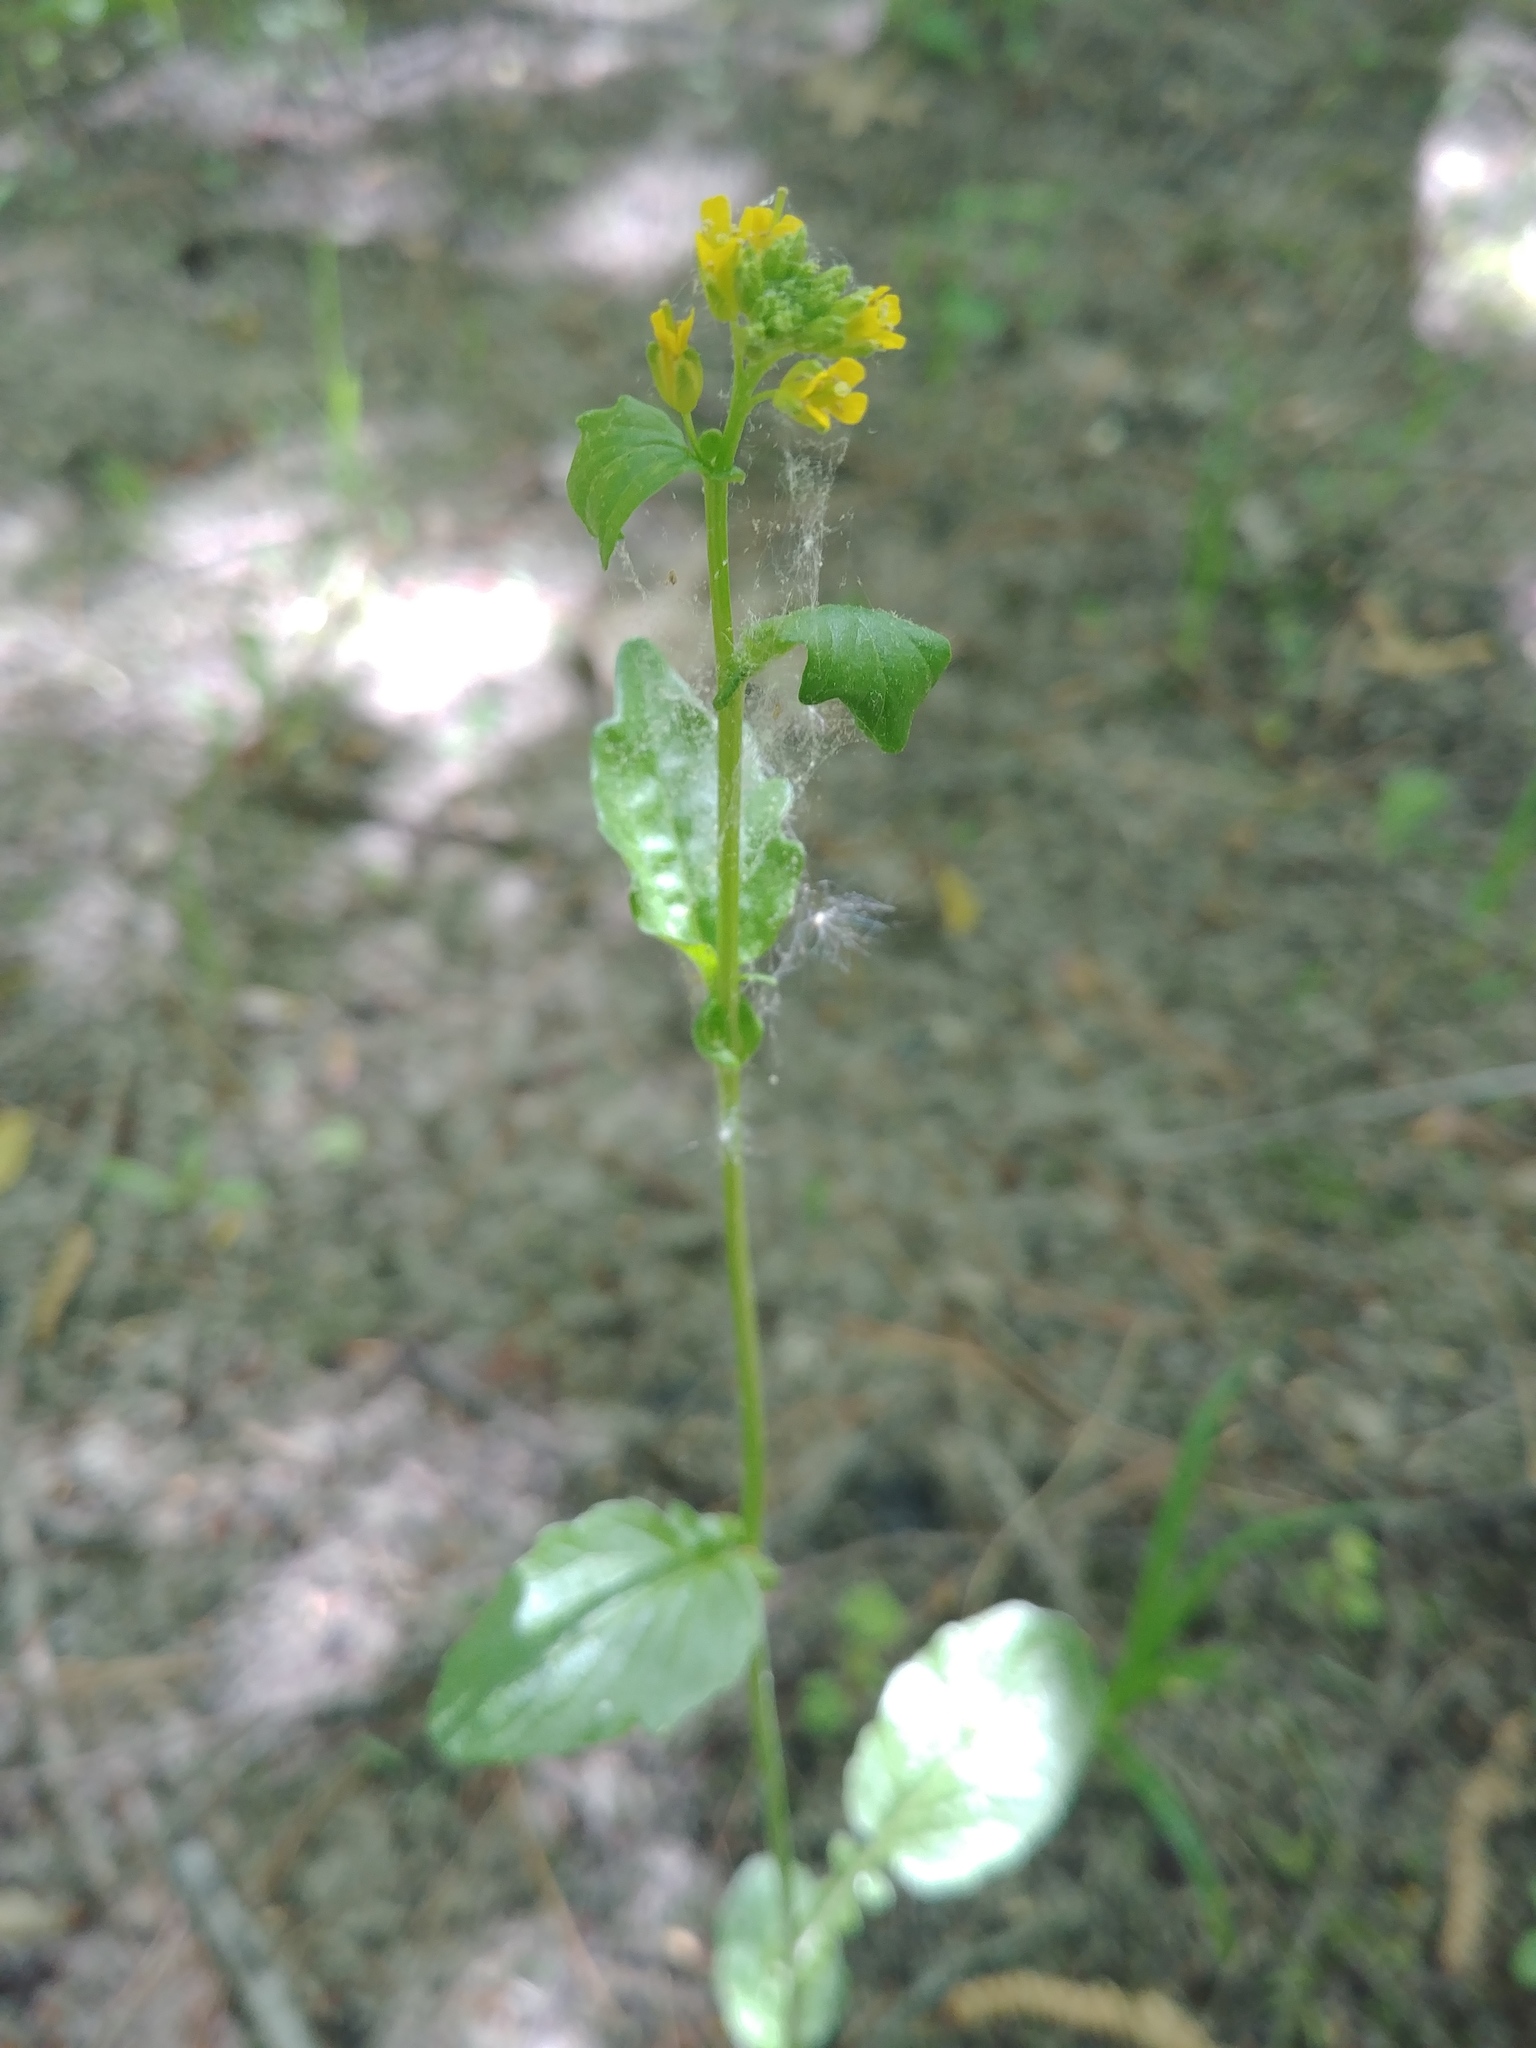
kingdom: Plantae
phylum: Tracheophyta
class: Magnoliopsida
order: Brassicales
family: Brassicaceae
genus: Barbarea
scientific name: Barbarea vulgaris
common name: Cressy-greens
